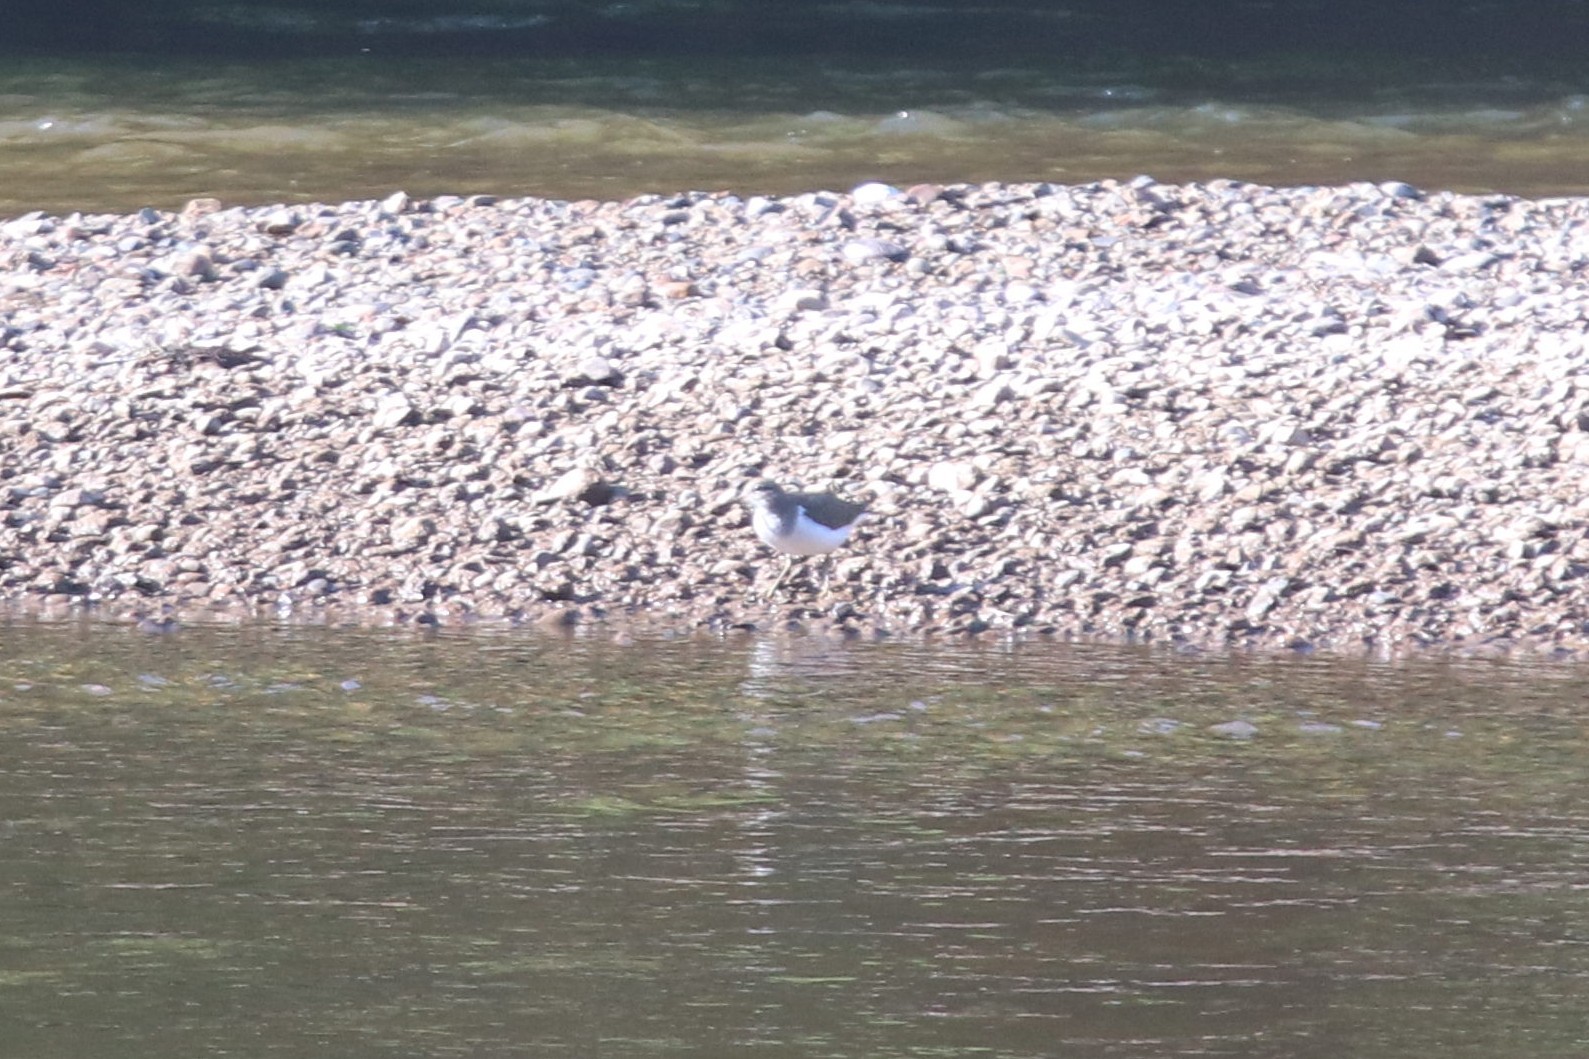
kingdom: Animalia
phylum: Chordata
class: Aves
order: Charadriiformes
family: Scolopacidae
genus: Actitis
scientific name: Actitis hypoleucos
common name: Common sandpiper
